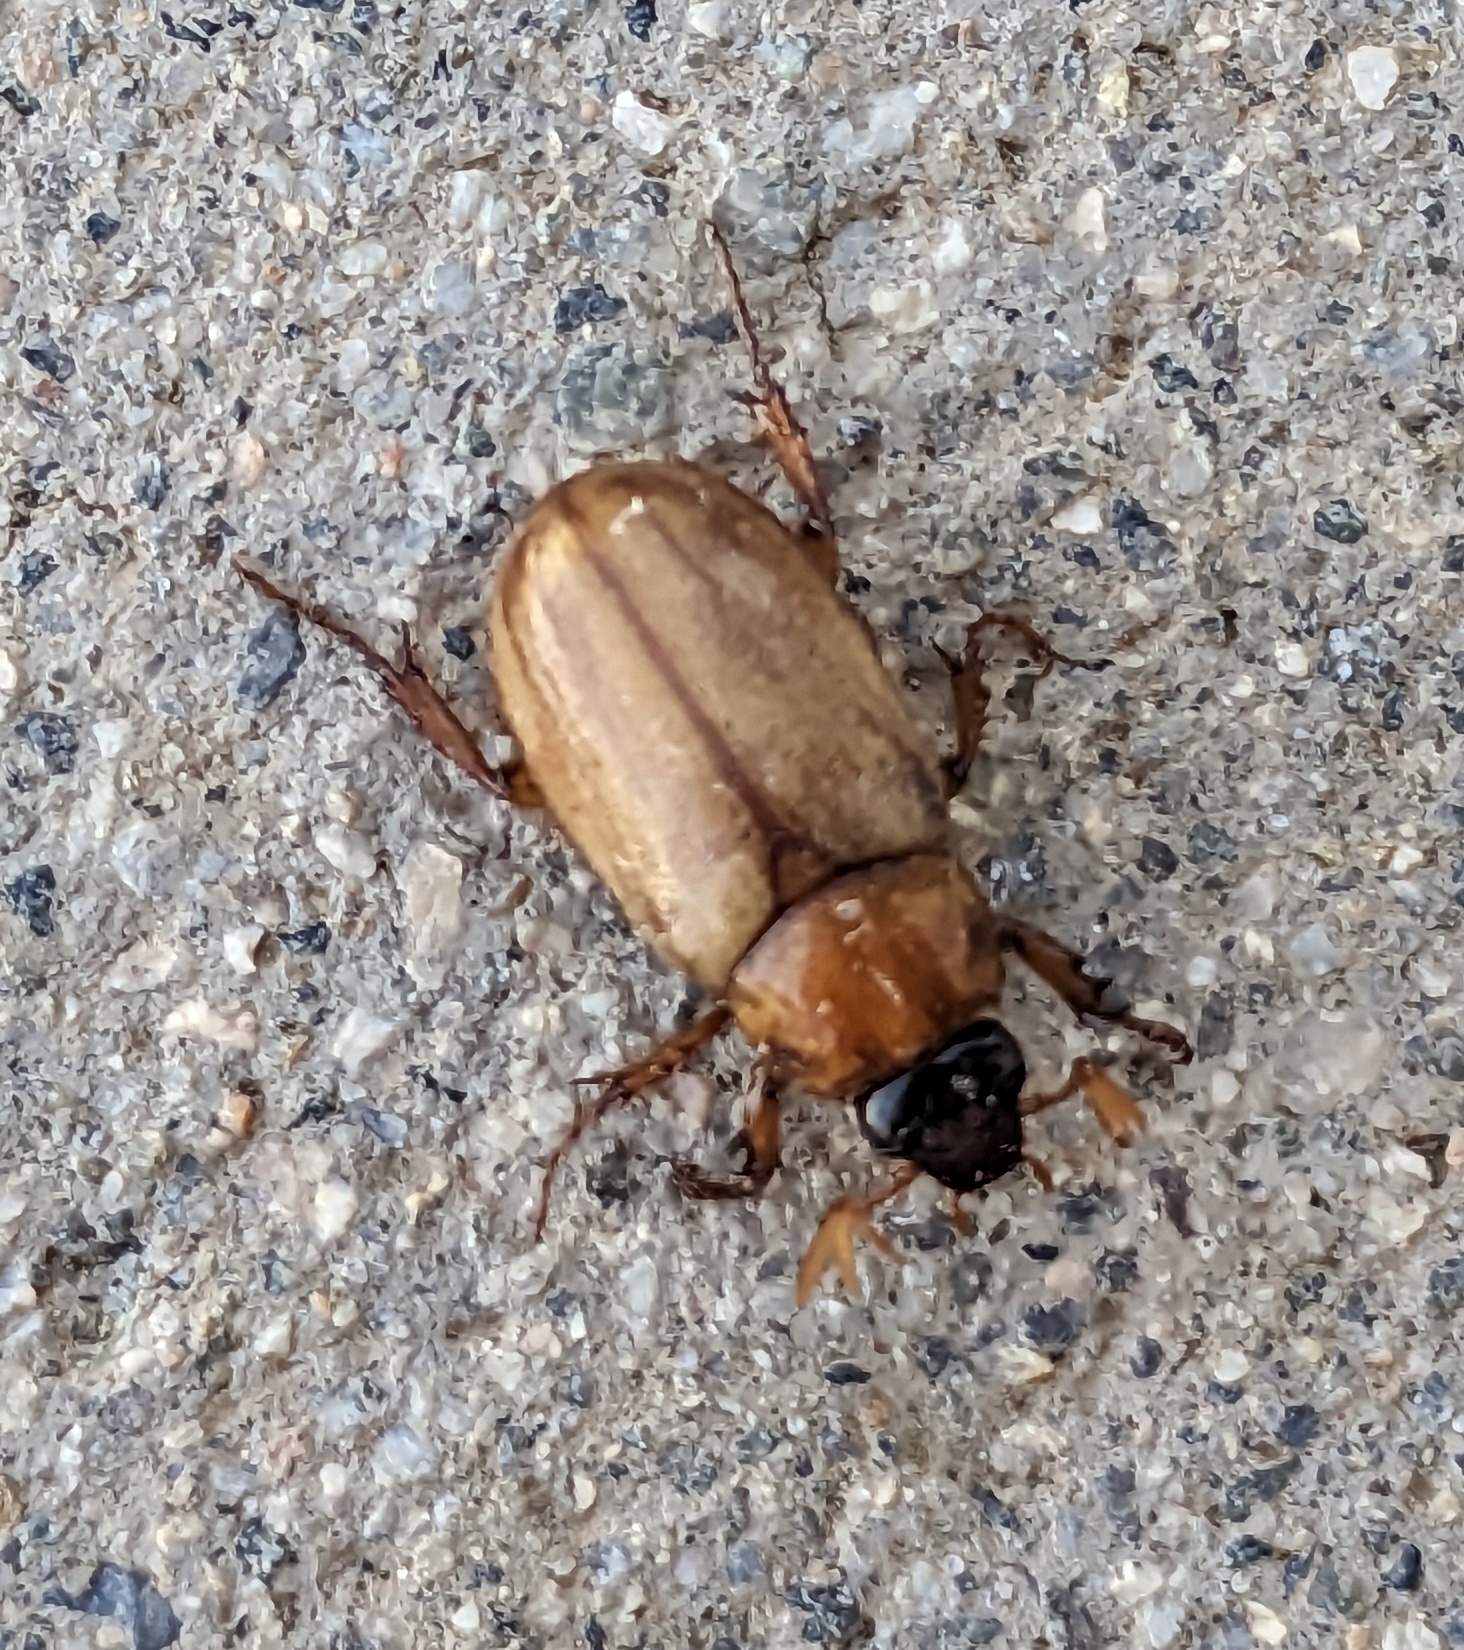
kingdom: Animalia
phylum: Arthropoda
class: Insecta
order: Coleoptera
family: Scarabaeidae
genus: Cyclocephala
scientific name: Cyclocephala longula
